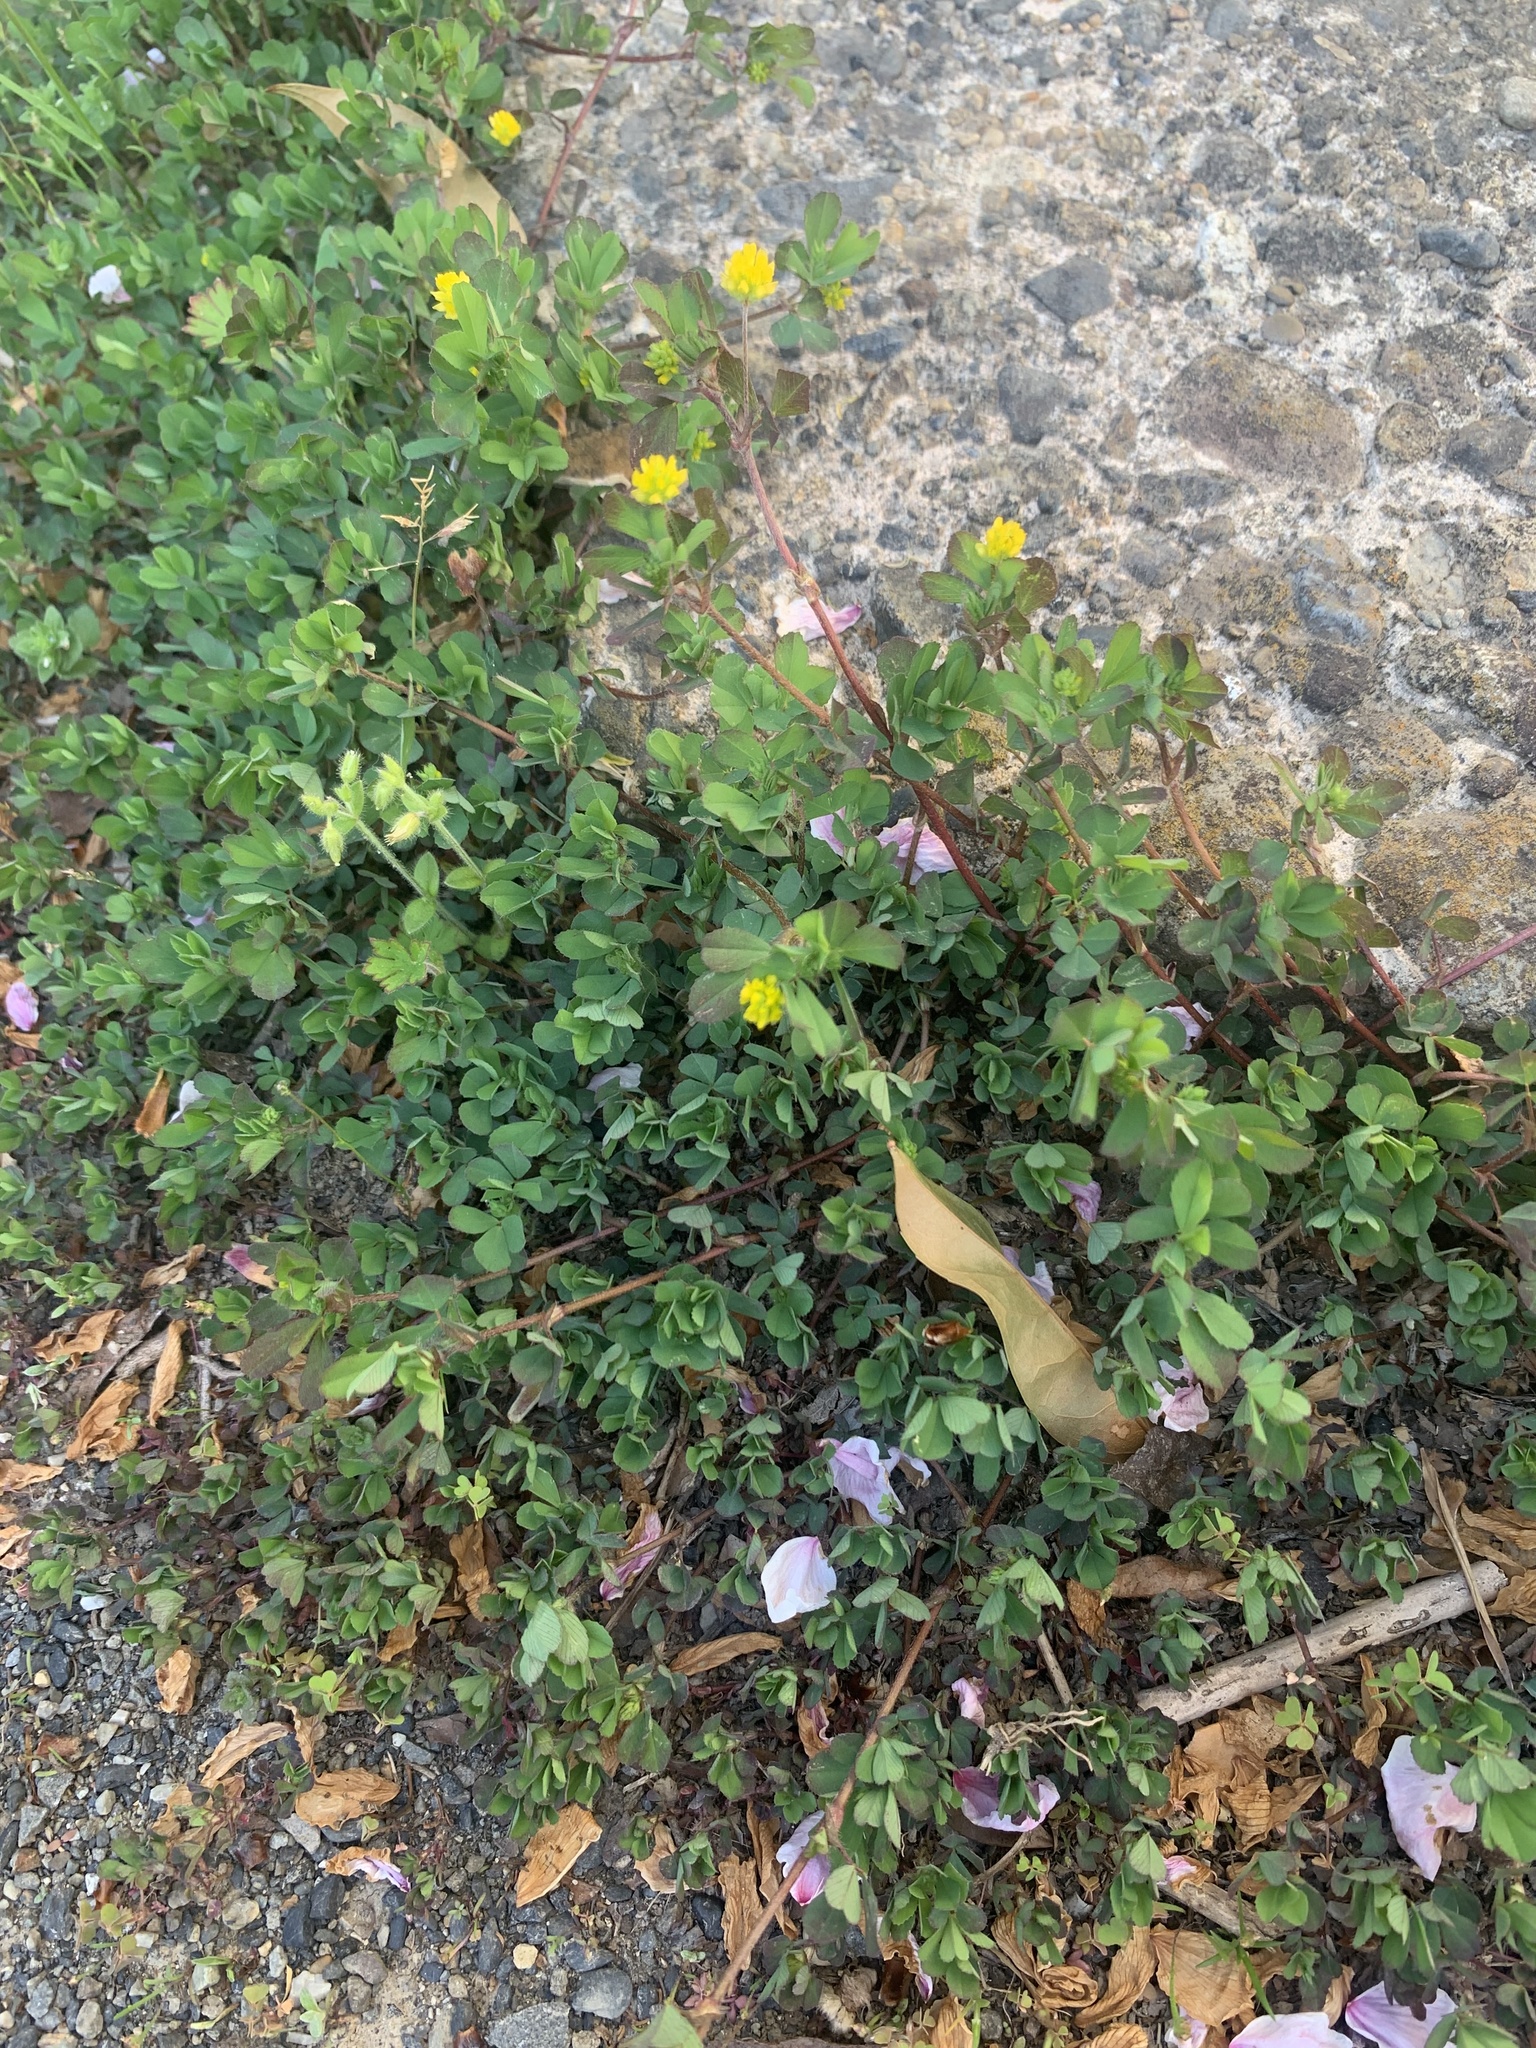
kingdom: Plantae
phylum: Tracheophyta
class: Magnoliopsida
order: Fabales
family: Fabaceae
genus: Trifolium
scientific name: Trifolium dubium
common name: Suckling clover
